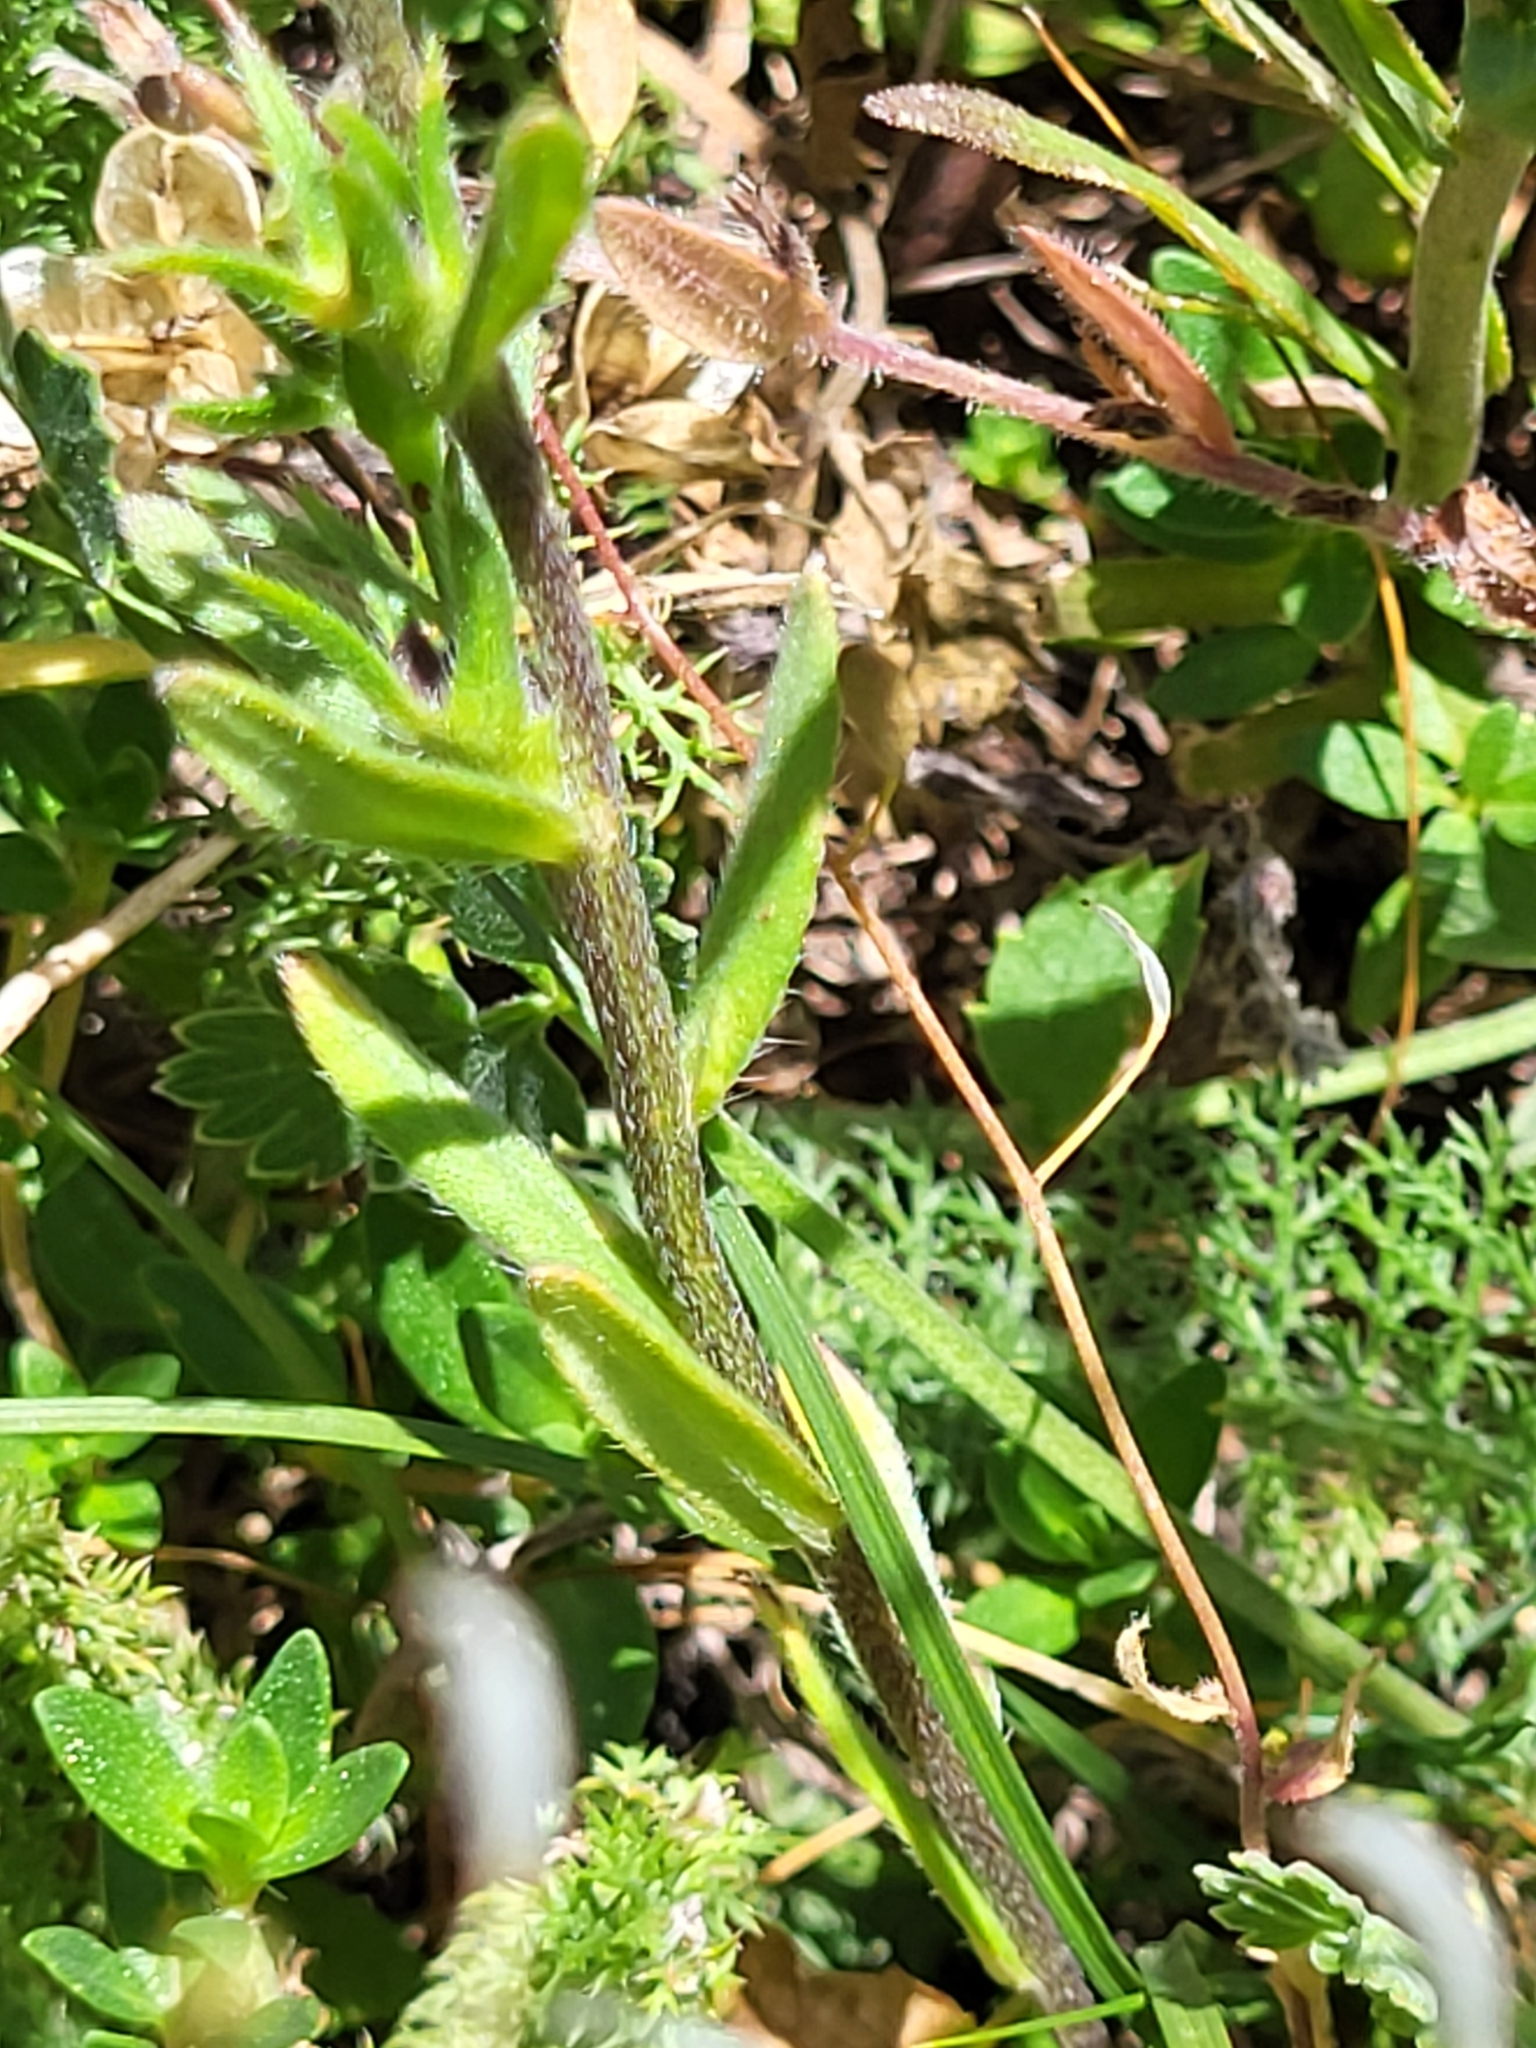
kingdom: Plantae
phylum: Tracheophyta
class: Magnoliopsida
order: Boraginales
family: Boraginaceae
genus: Buglossoides
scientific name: Buglossoides arvensis
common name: Corn gromwell
